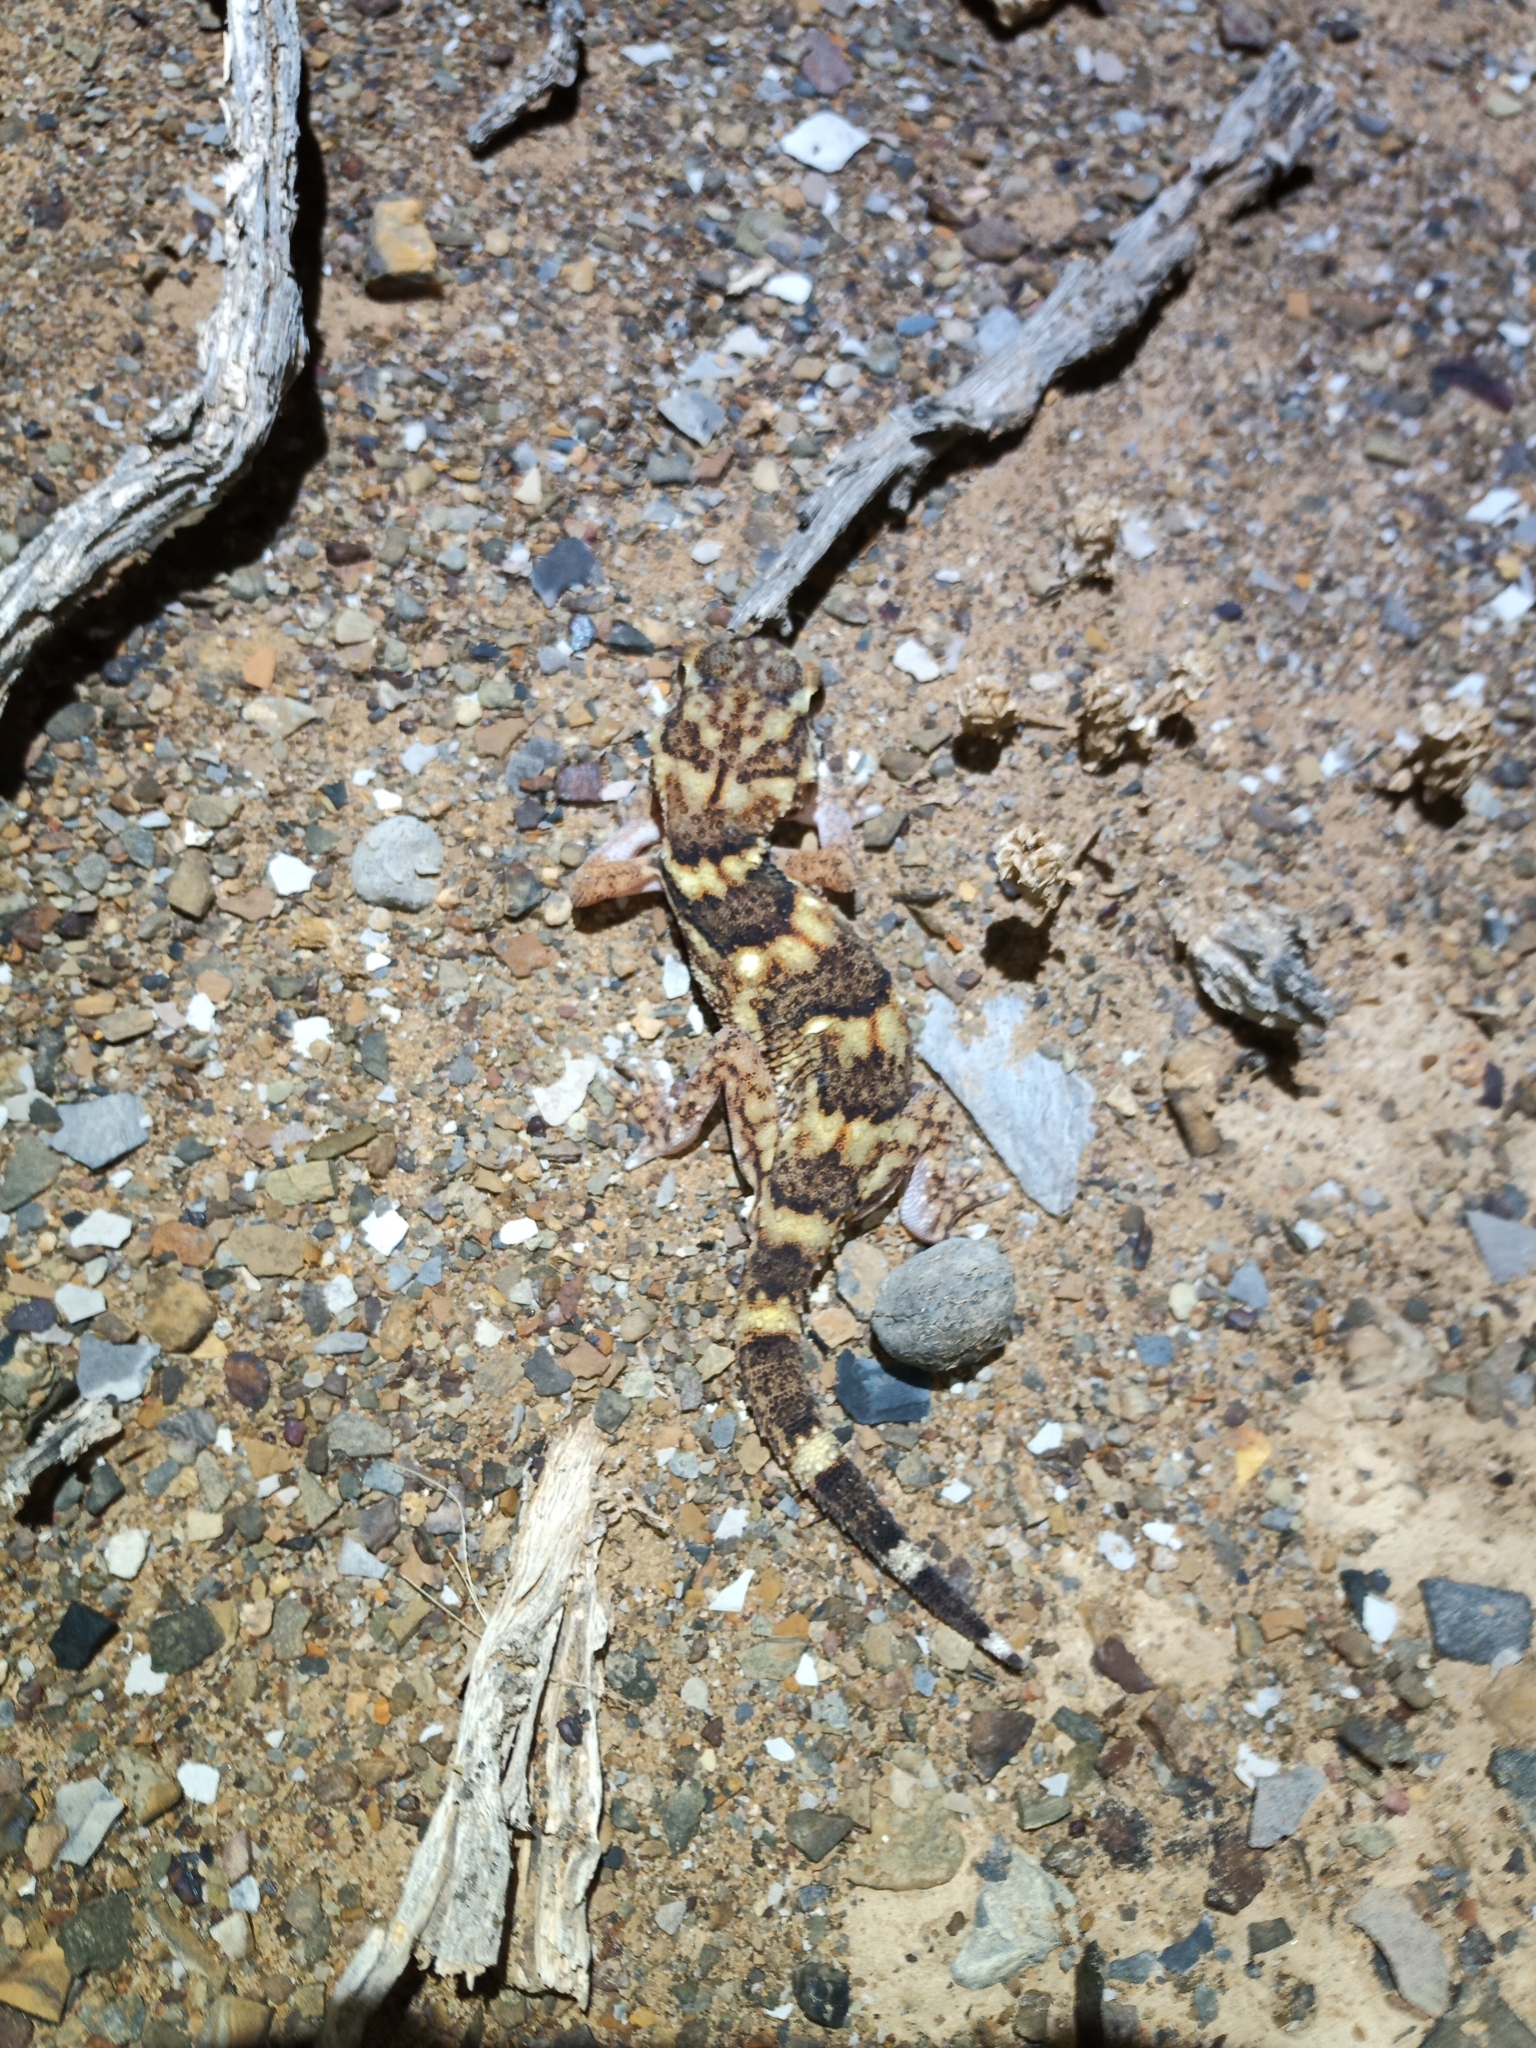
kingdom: Animalia
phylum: Chordata
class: Squamata
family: Gekkonidae
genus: Chondrodactylus
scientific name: Chondrodactylus angulifer
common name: Common giant ground gecko
